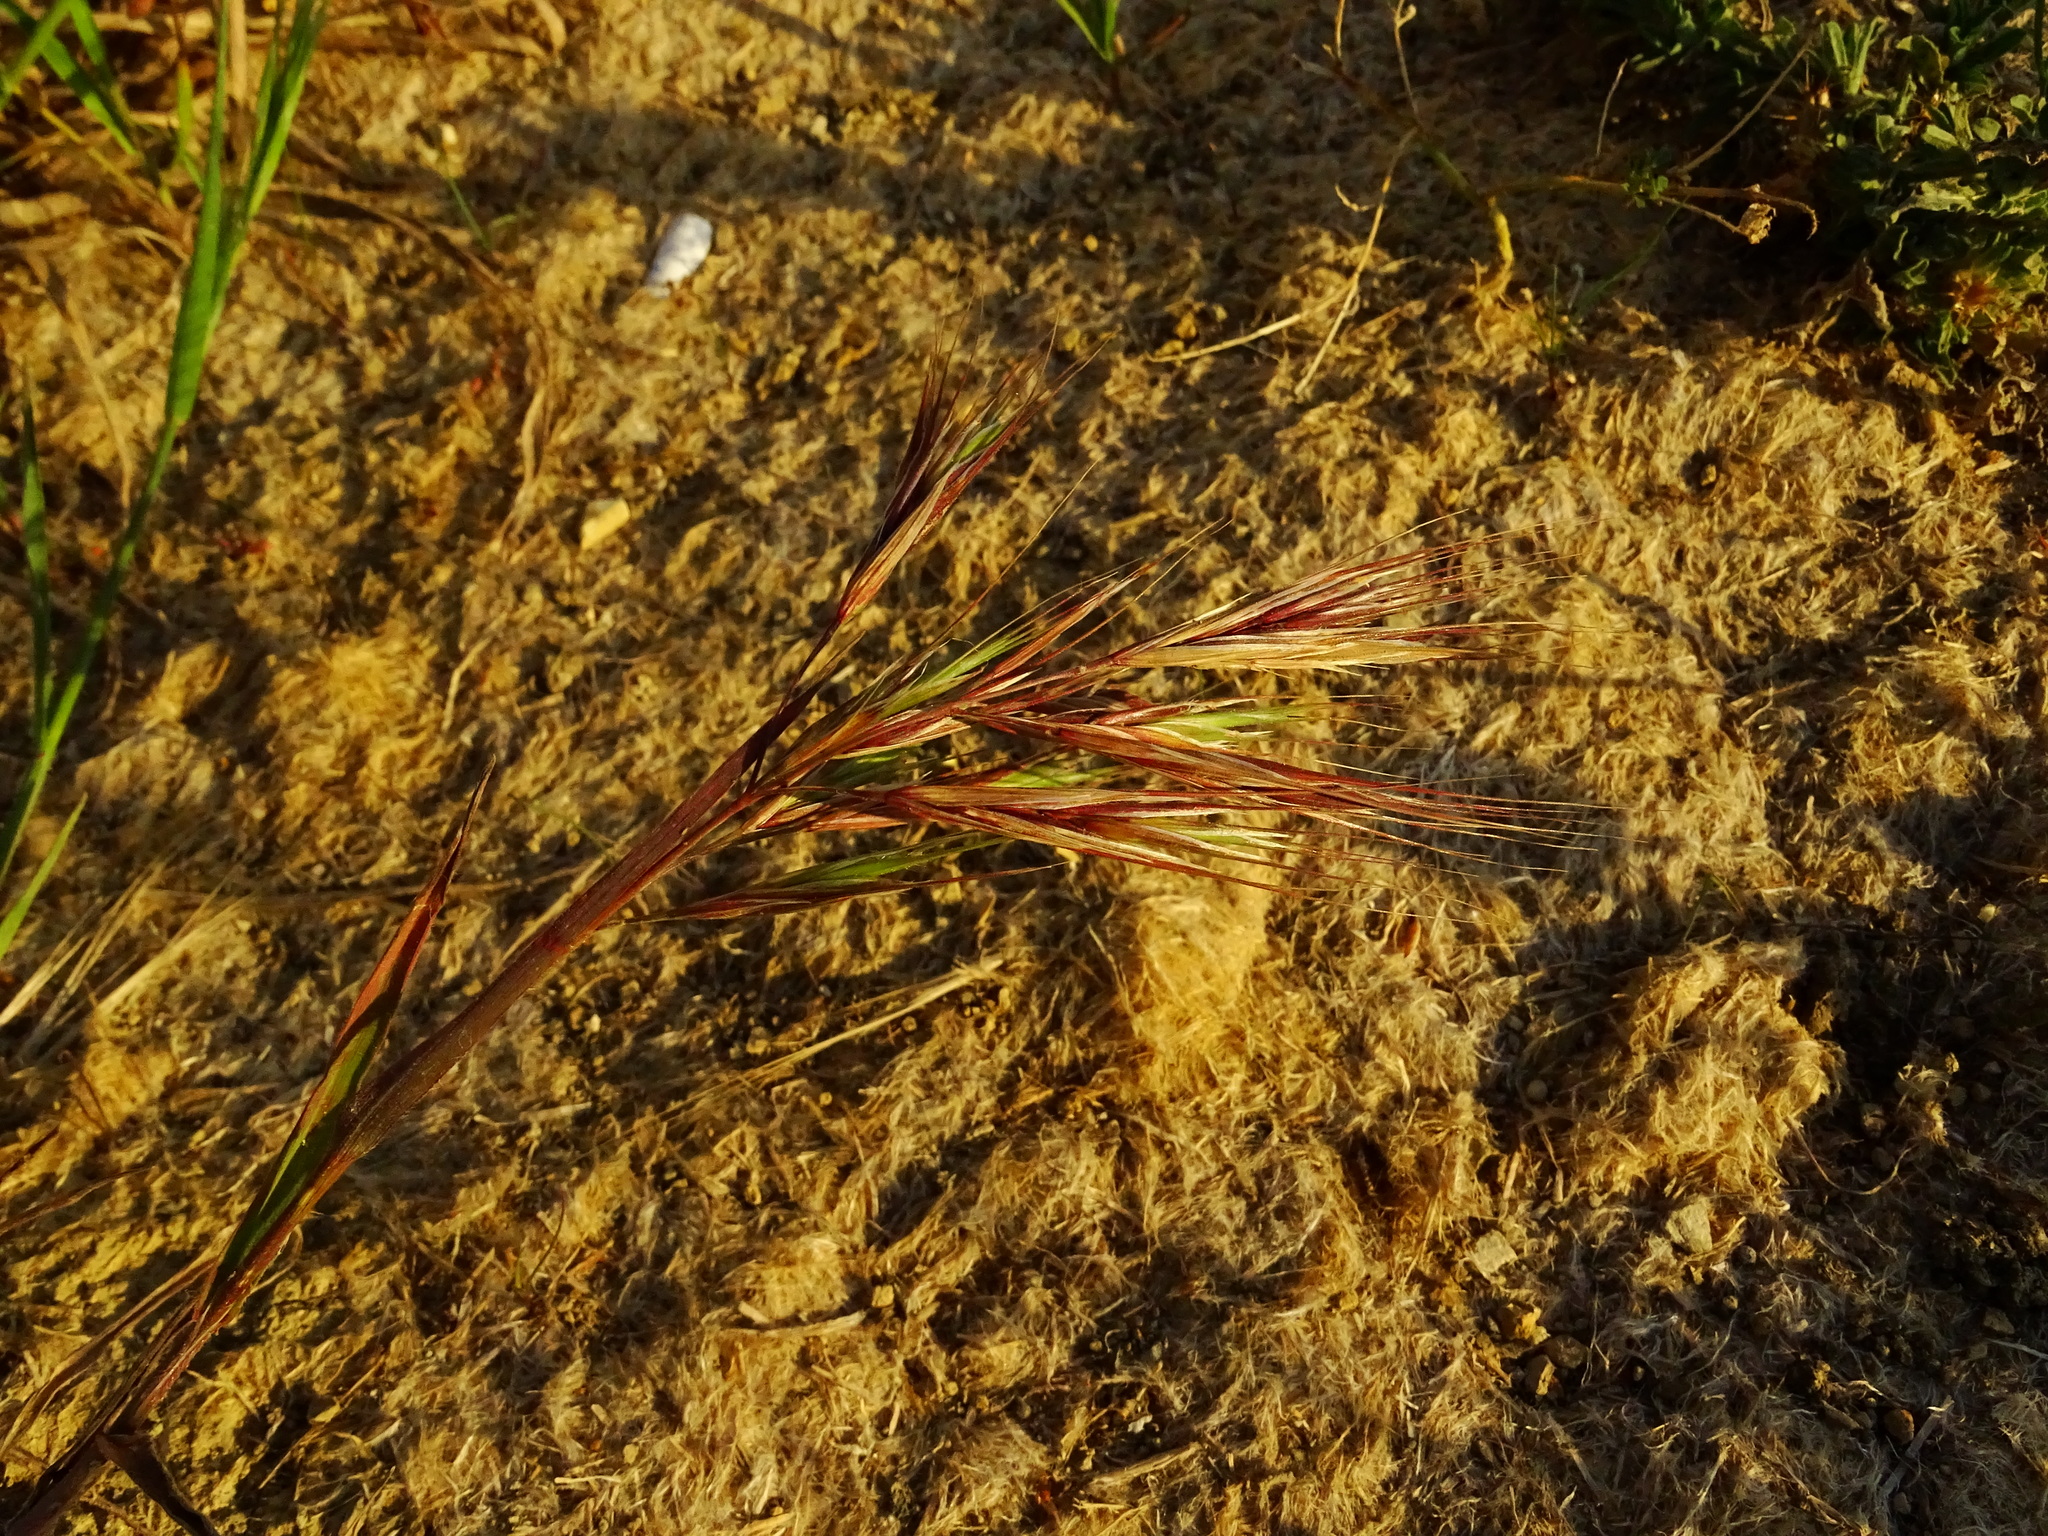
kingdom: Plantae
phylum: Tracheophyta
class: Liliopsida
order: Poales
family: Poaceae
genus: Bromus
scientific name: Bromus diandrus
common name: Ripgut brome
